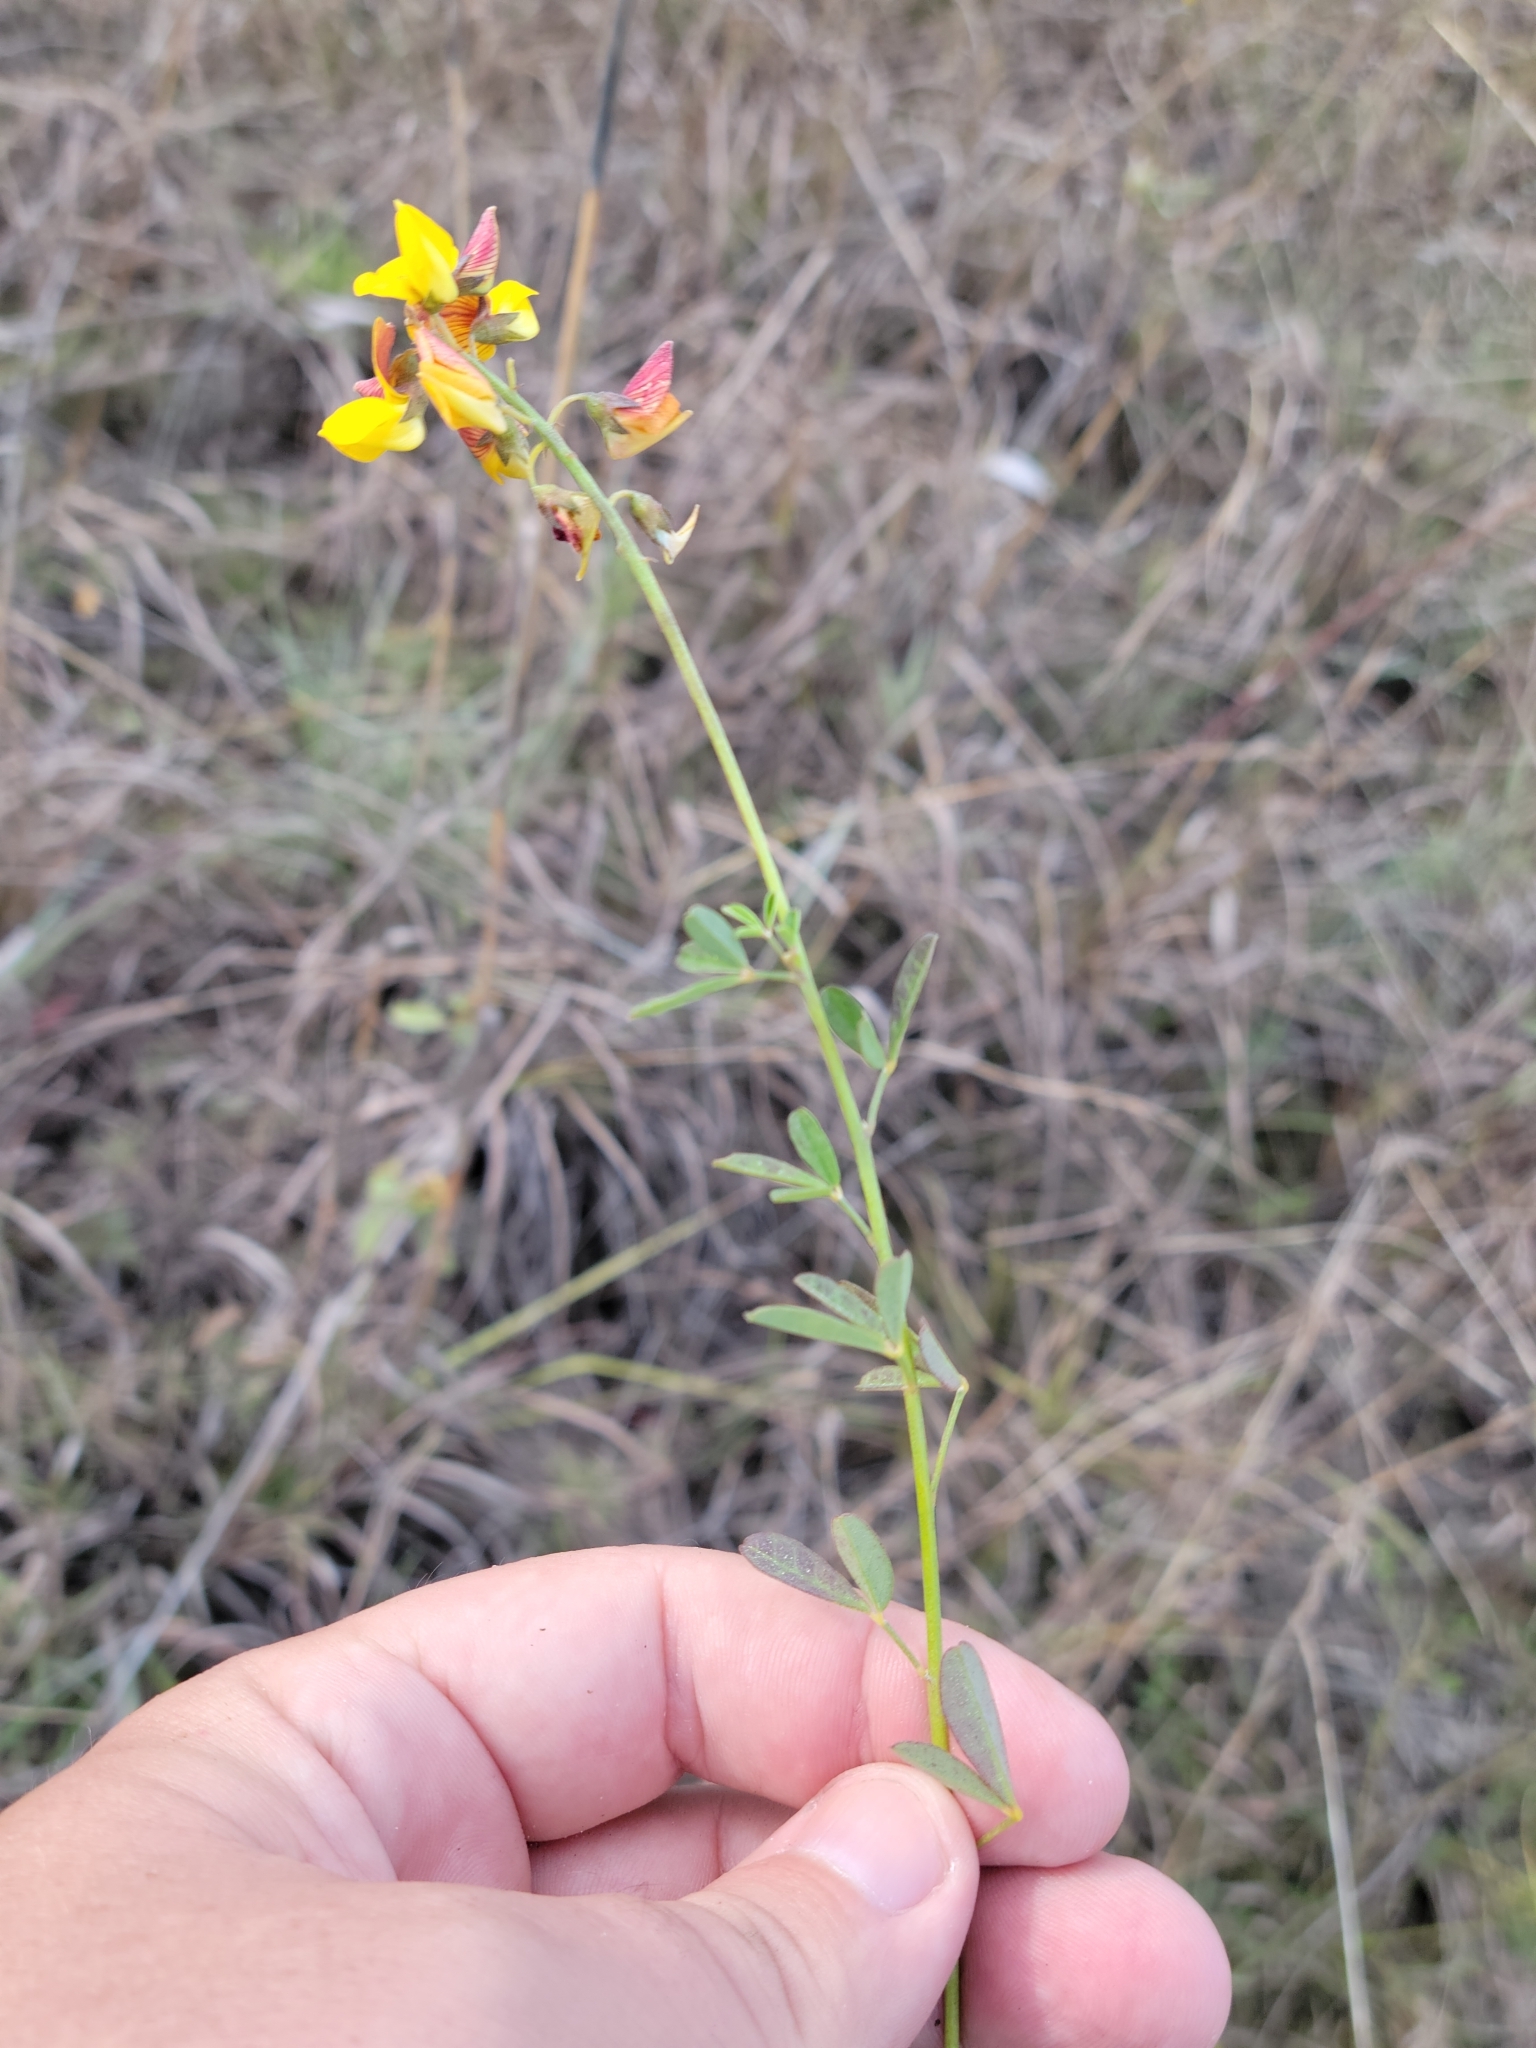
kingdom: Plantae
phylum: Tracheophyta
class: Magnoliopsida
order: Fabales
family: Fabaceae
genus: Crotalaria
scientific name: Crotalaria pumila
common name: Low rattlebox
